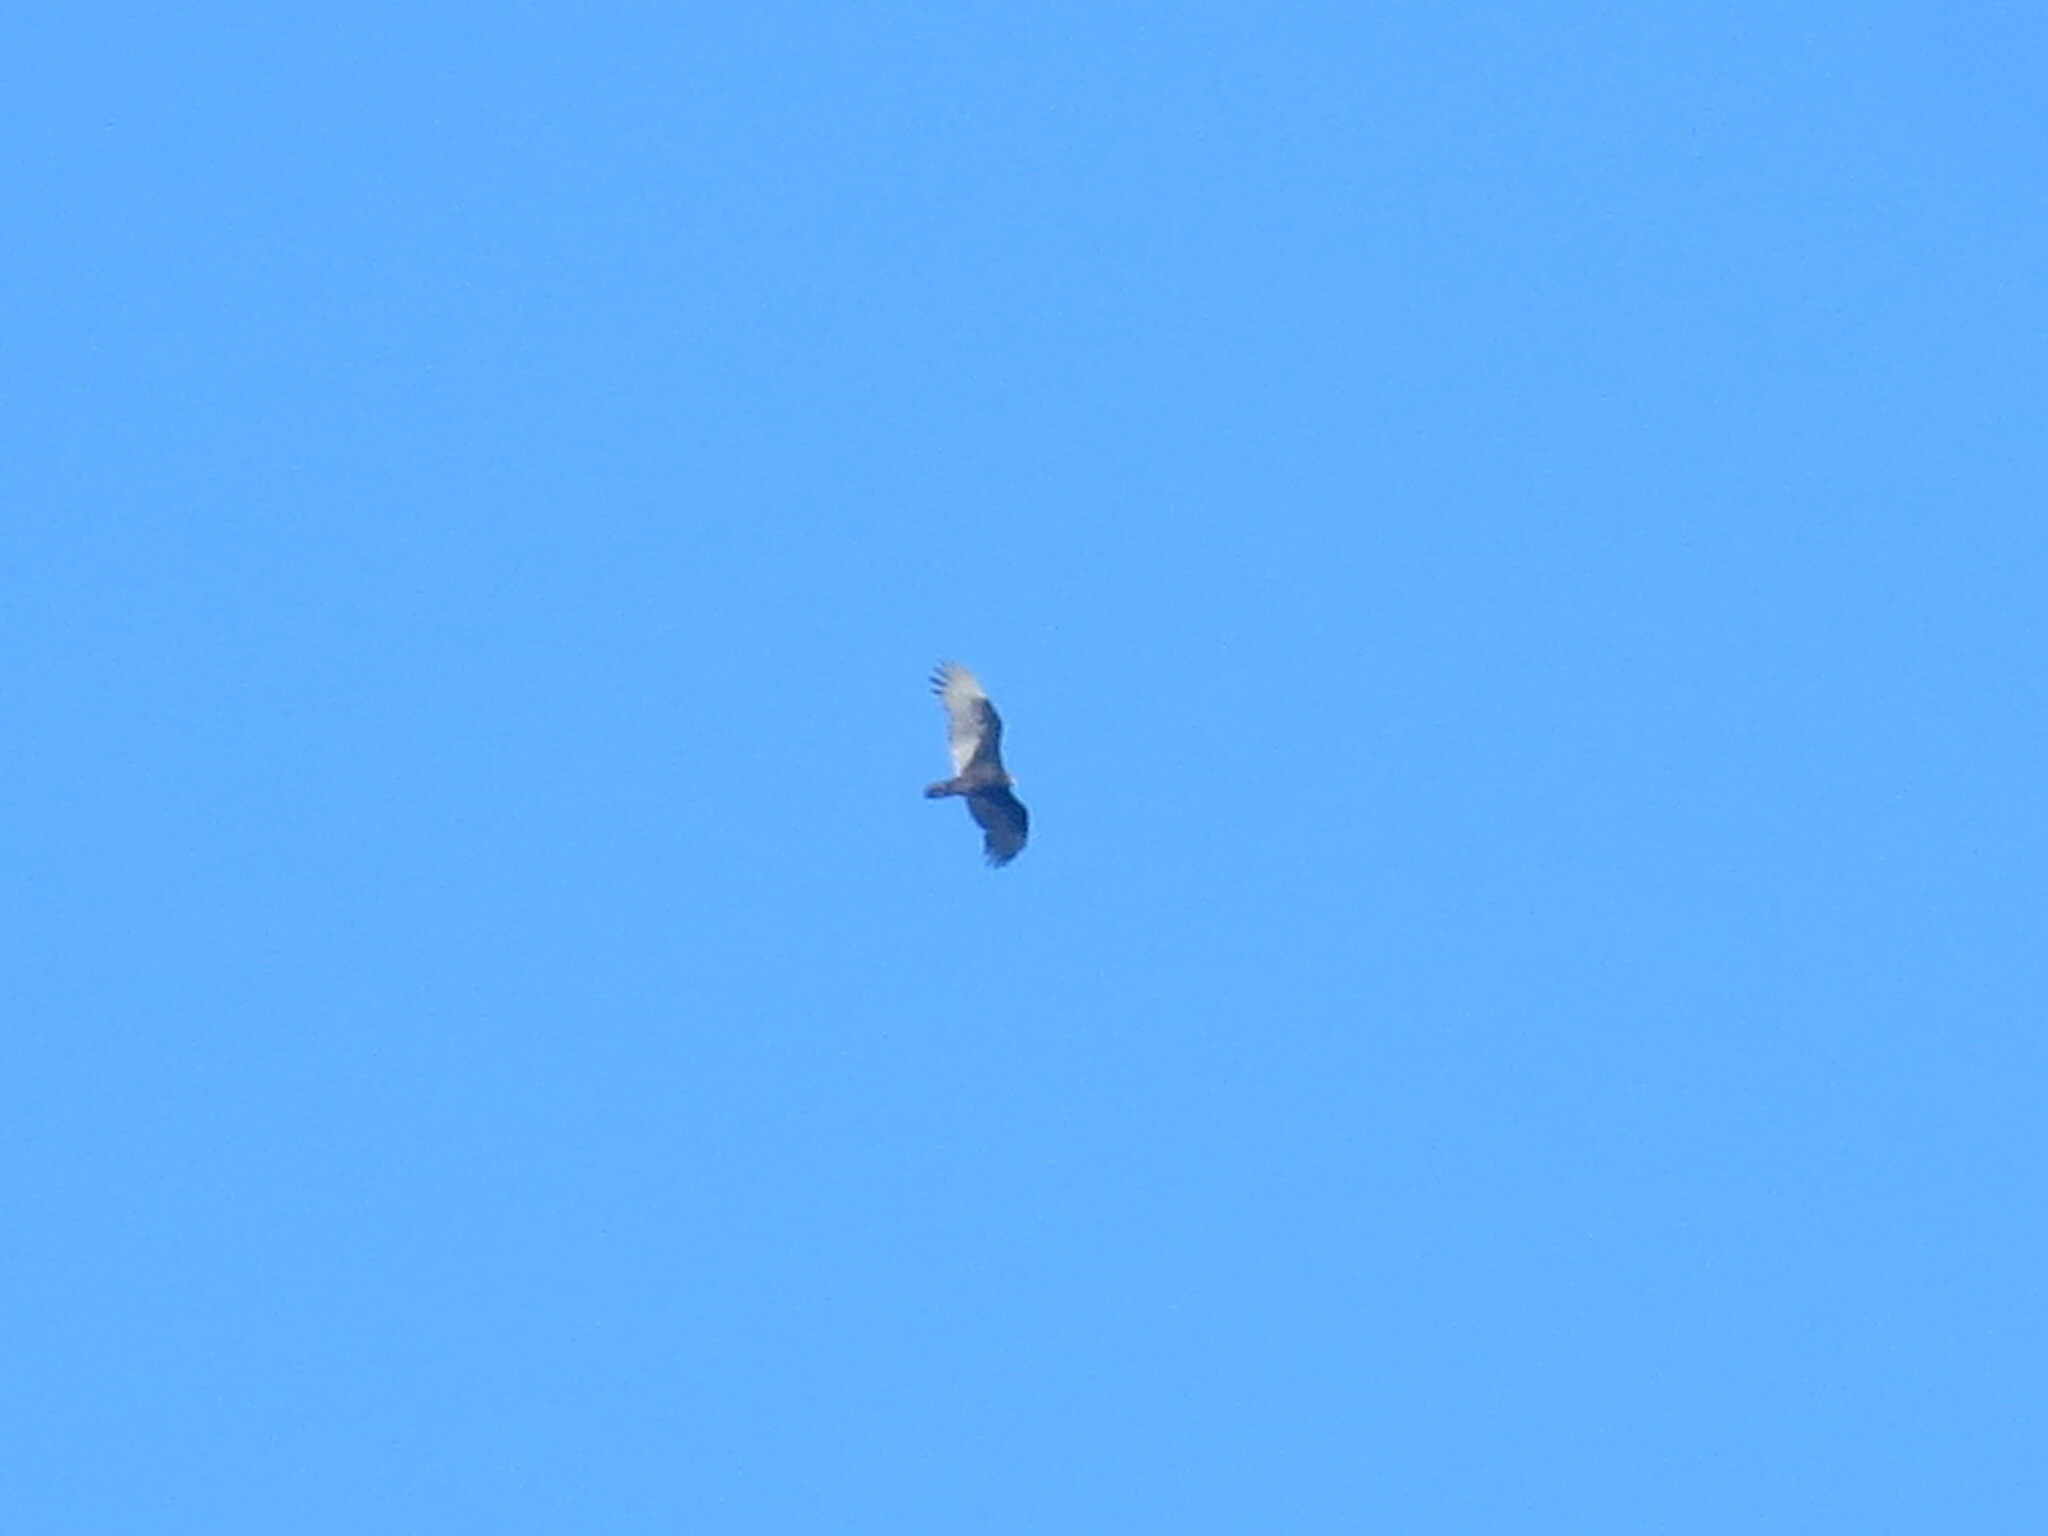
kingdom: Animalia
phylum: Chordata
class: Aves
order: Accipitriformes
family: Cathartidae
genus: Cathartes
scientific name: Cathartes aura
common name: Turkey vulture
